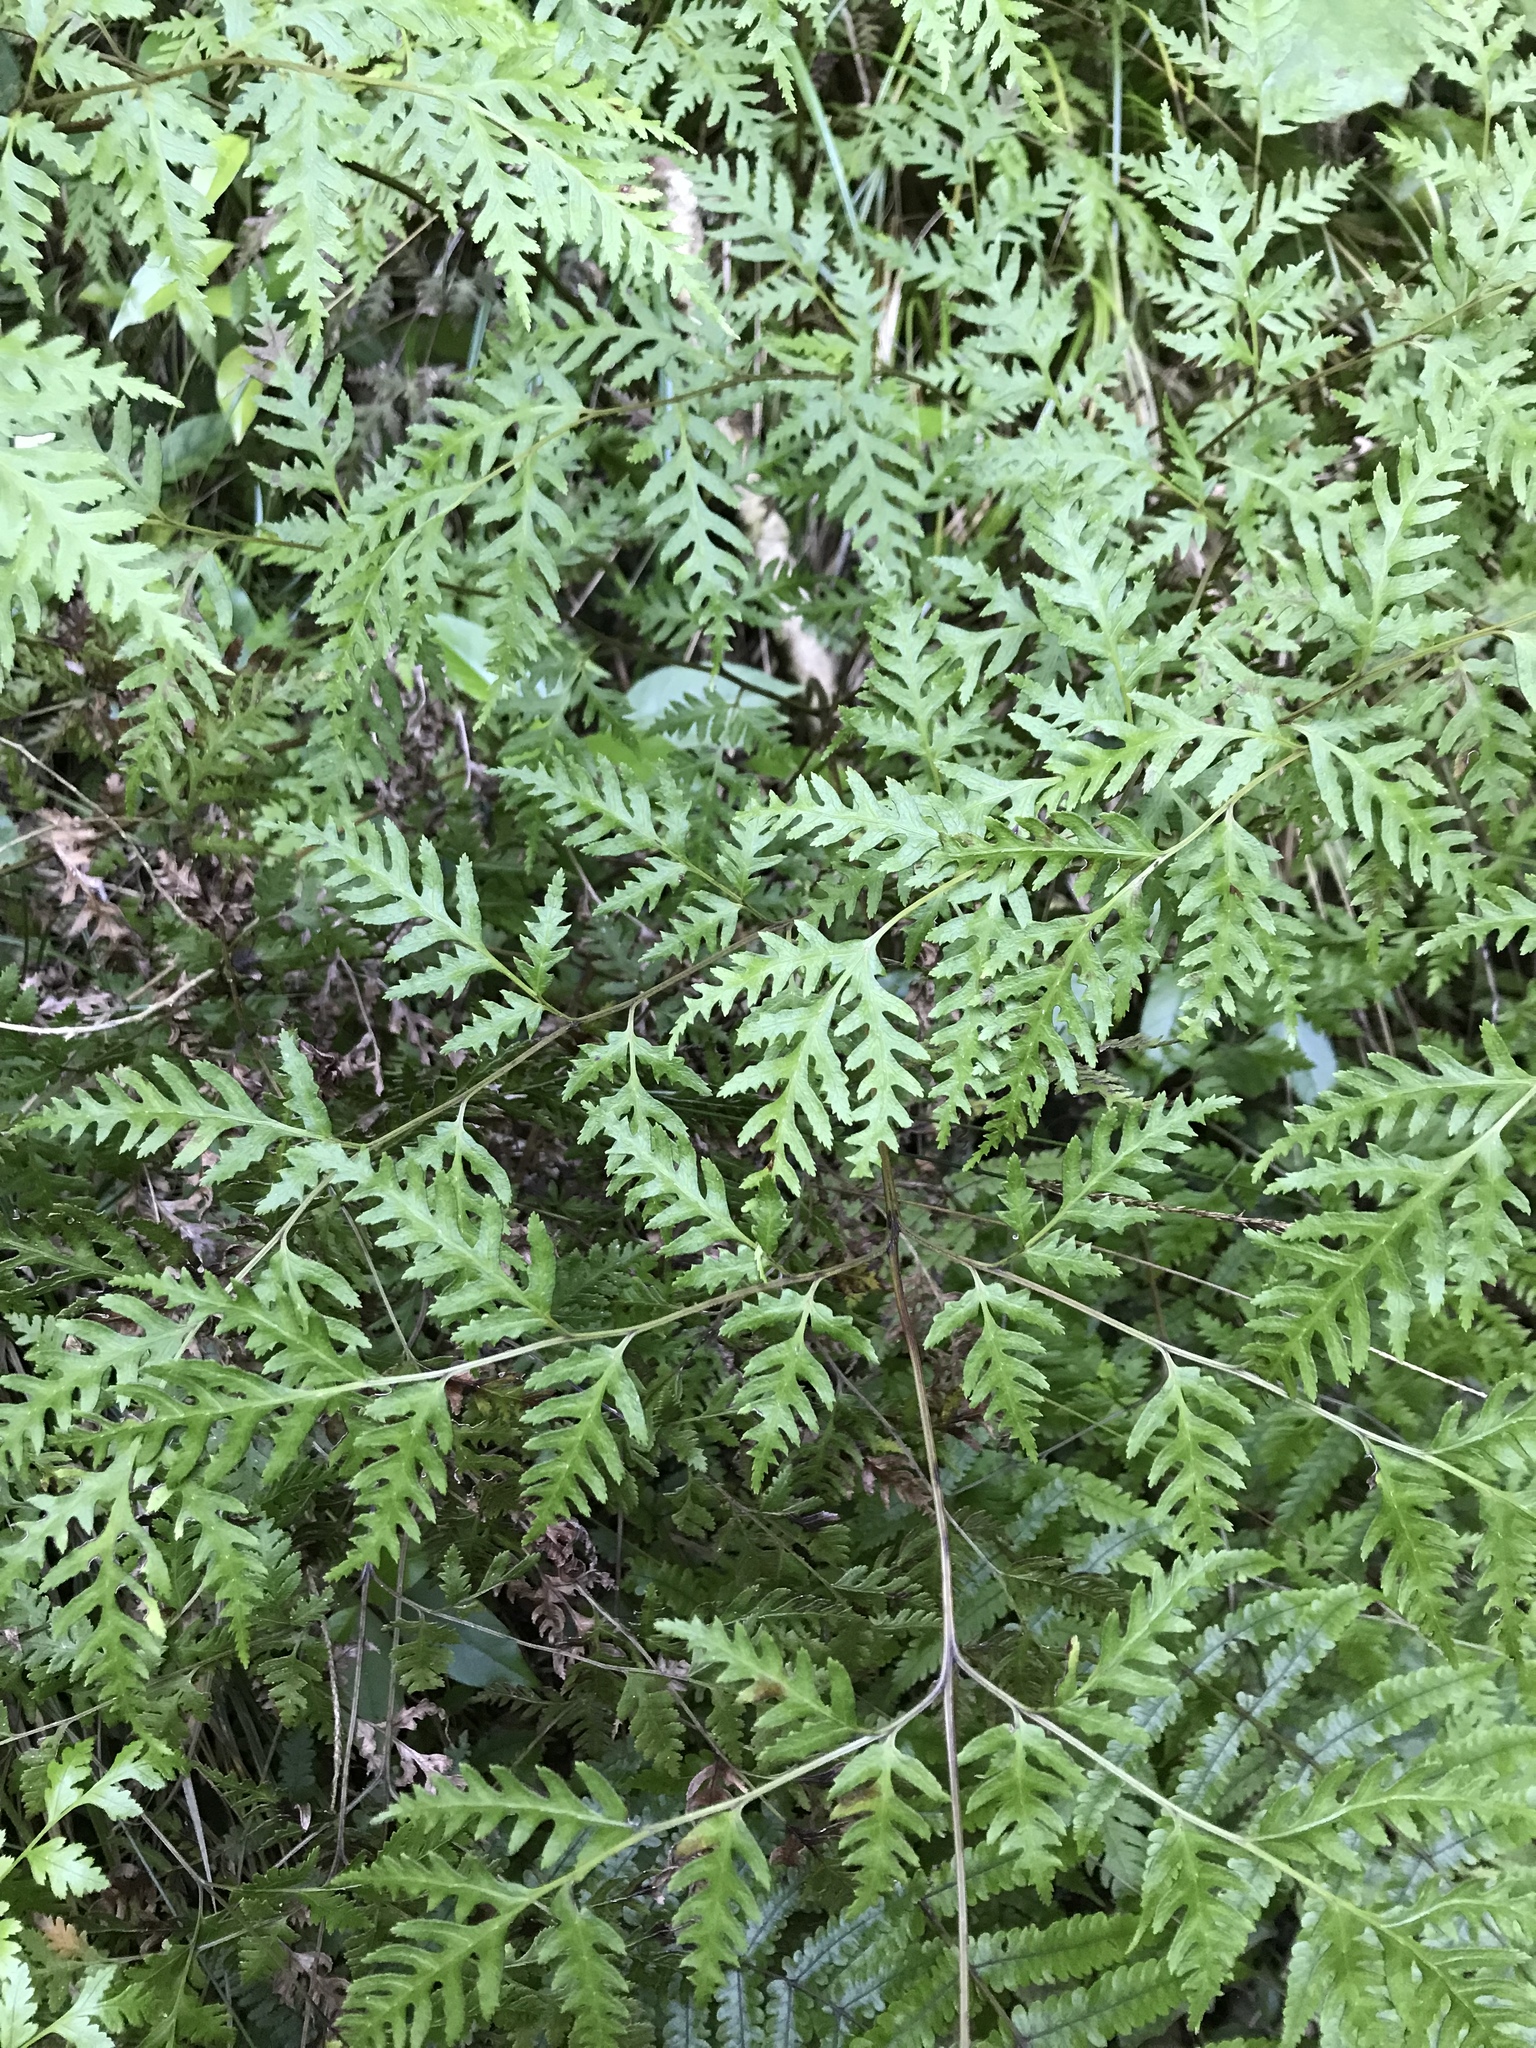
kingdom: Plantae
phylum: Tracheophyta
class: Polypodiopsida
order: Polypodiales
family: Pteridaceae
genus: Pteris
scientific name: Pteris macilenta
